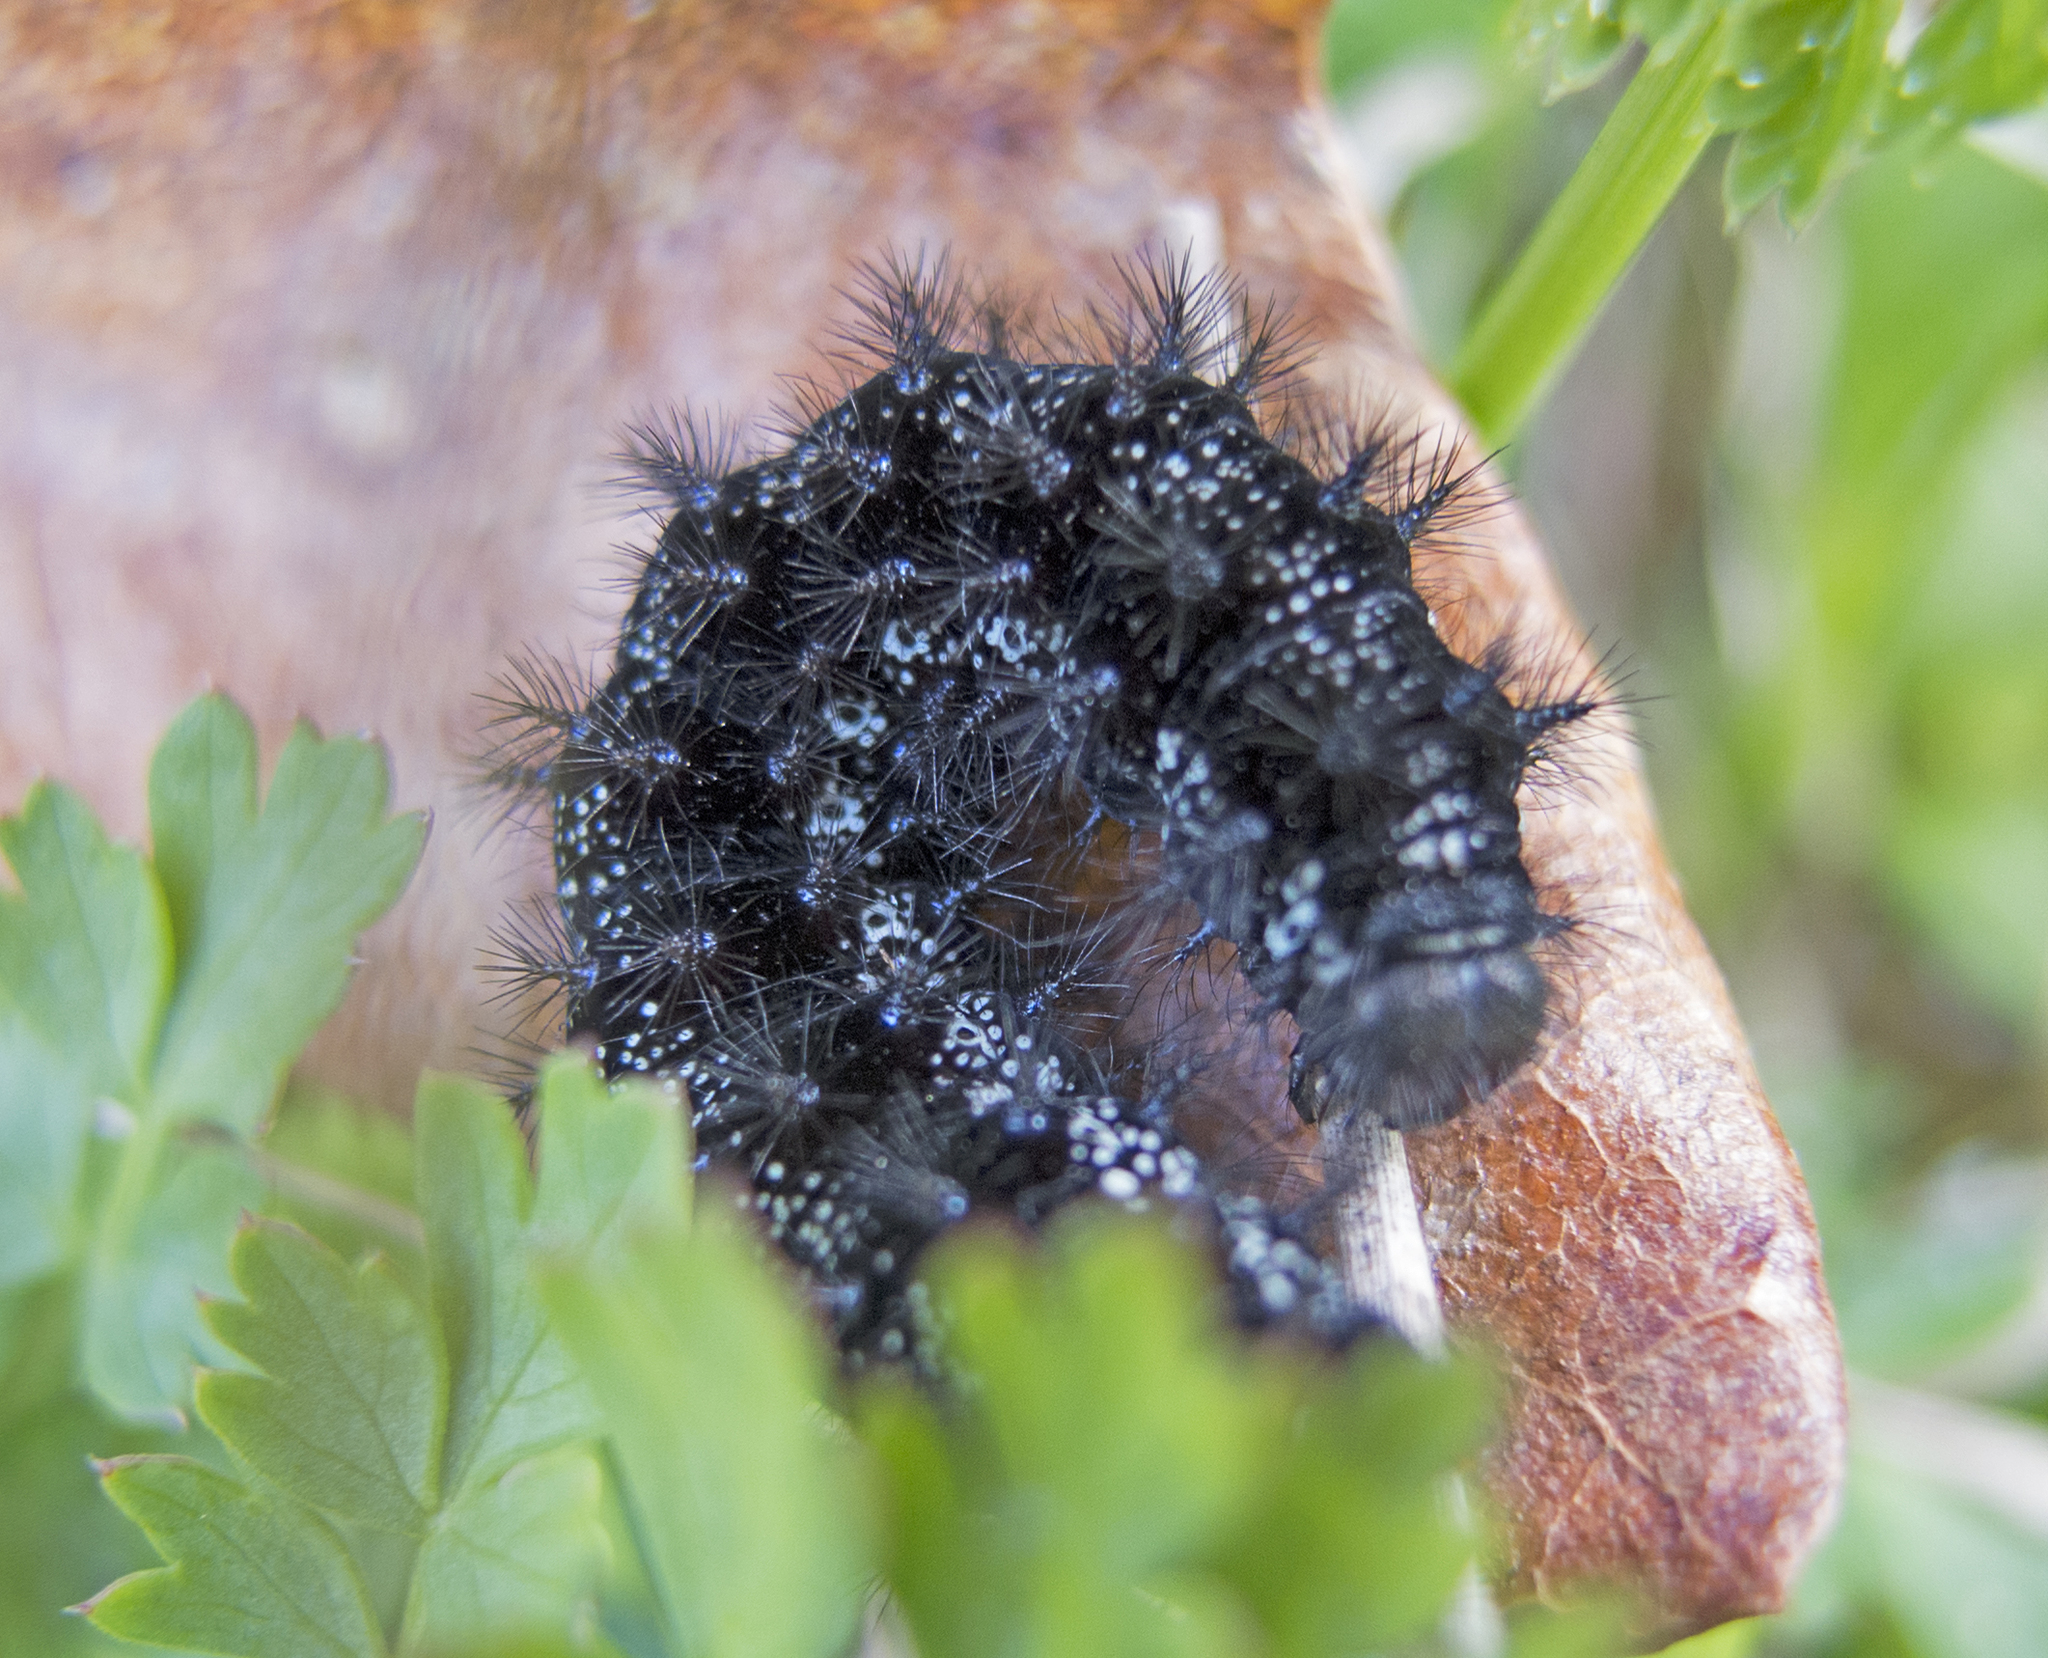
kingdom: Animalia
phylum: Arthropoda
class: Insecta
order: Lepidoptera
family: Nymphalidae
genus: Euphydryas
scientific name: Euphydryas aurinia
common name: Marsh fritillary
